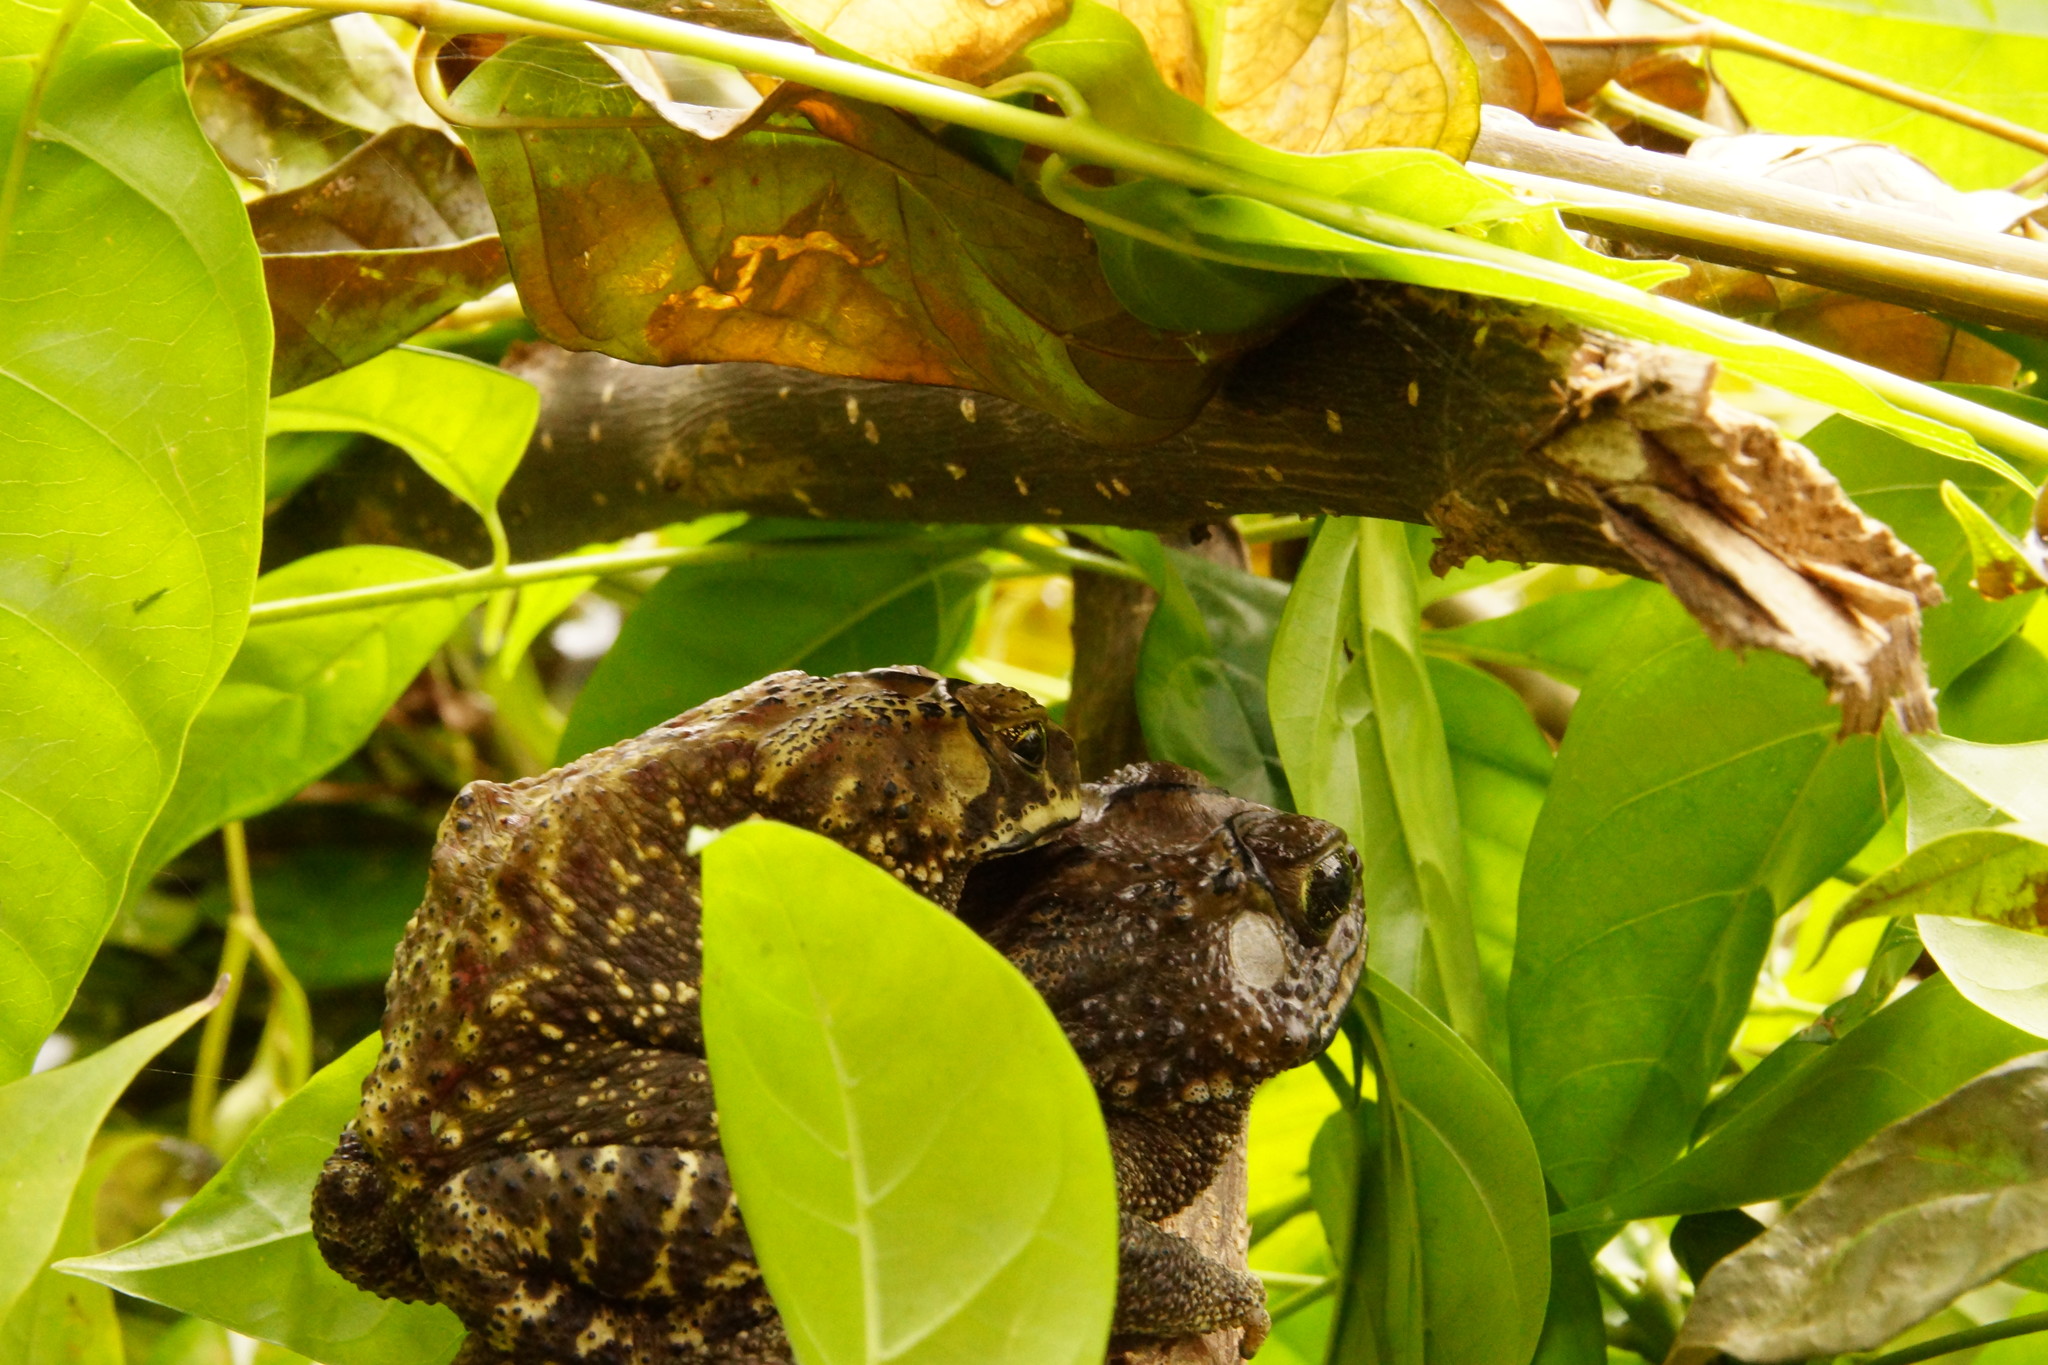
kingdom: Animalia
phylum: Chordata
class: Amphibia
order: Anura
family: Bufonidae
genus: Duttaphrynus
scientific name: Duttaphrynus melanostictus
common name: Common sunda toad
